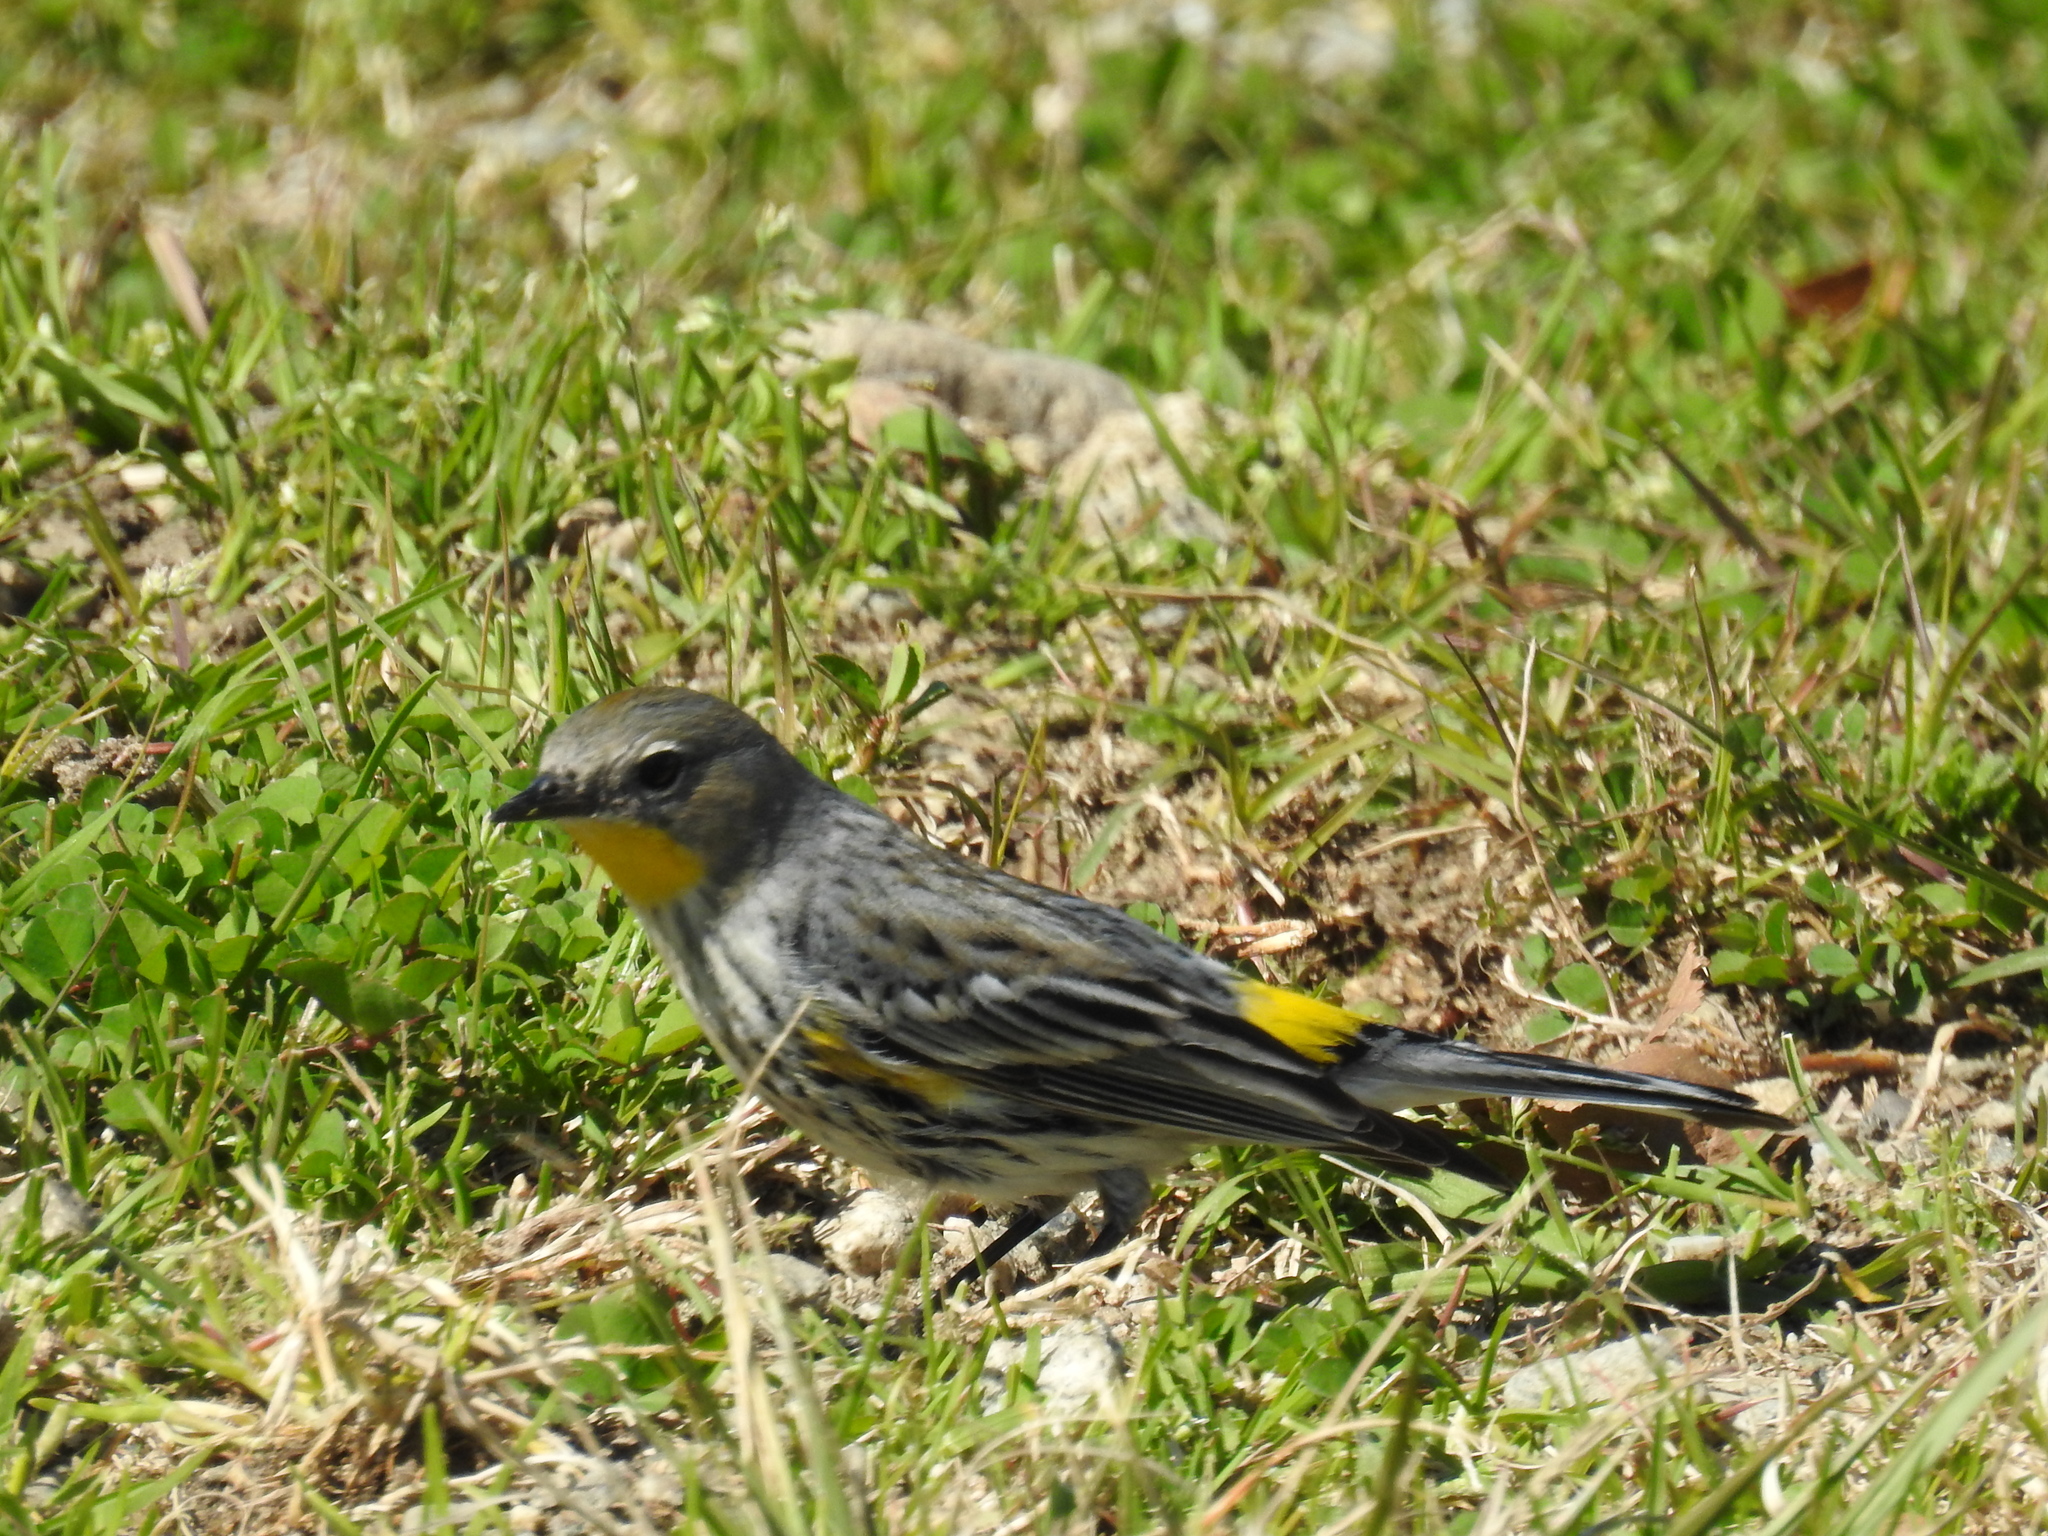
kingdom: Animalia
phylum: Chordata
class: Aves
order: Passeriformes
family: Parulidae
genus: Setophaga
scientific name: Setophaga coronata
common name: Myrtle warbler
